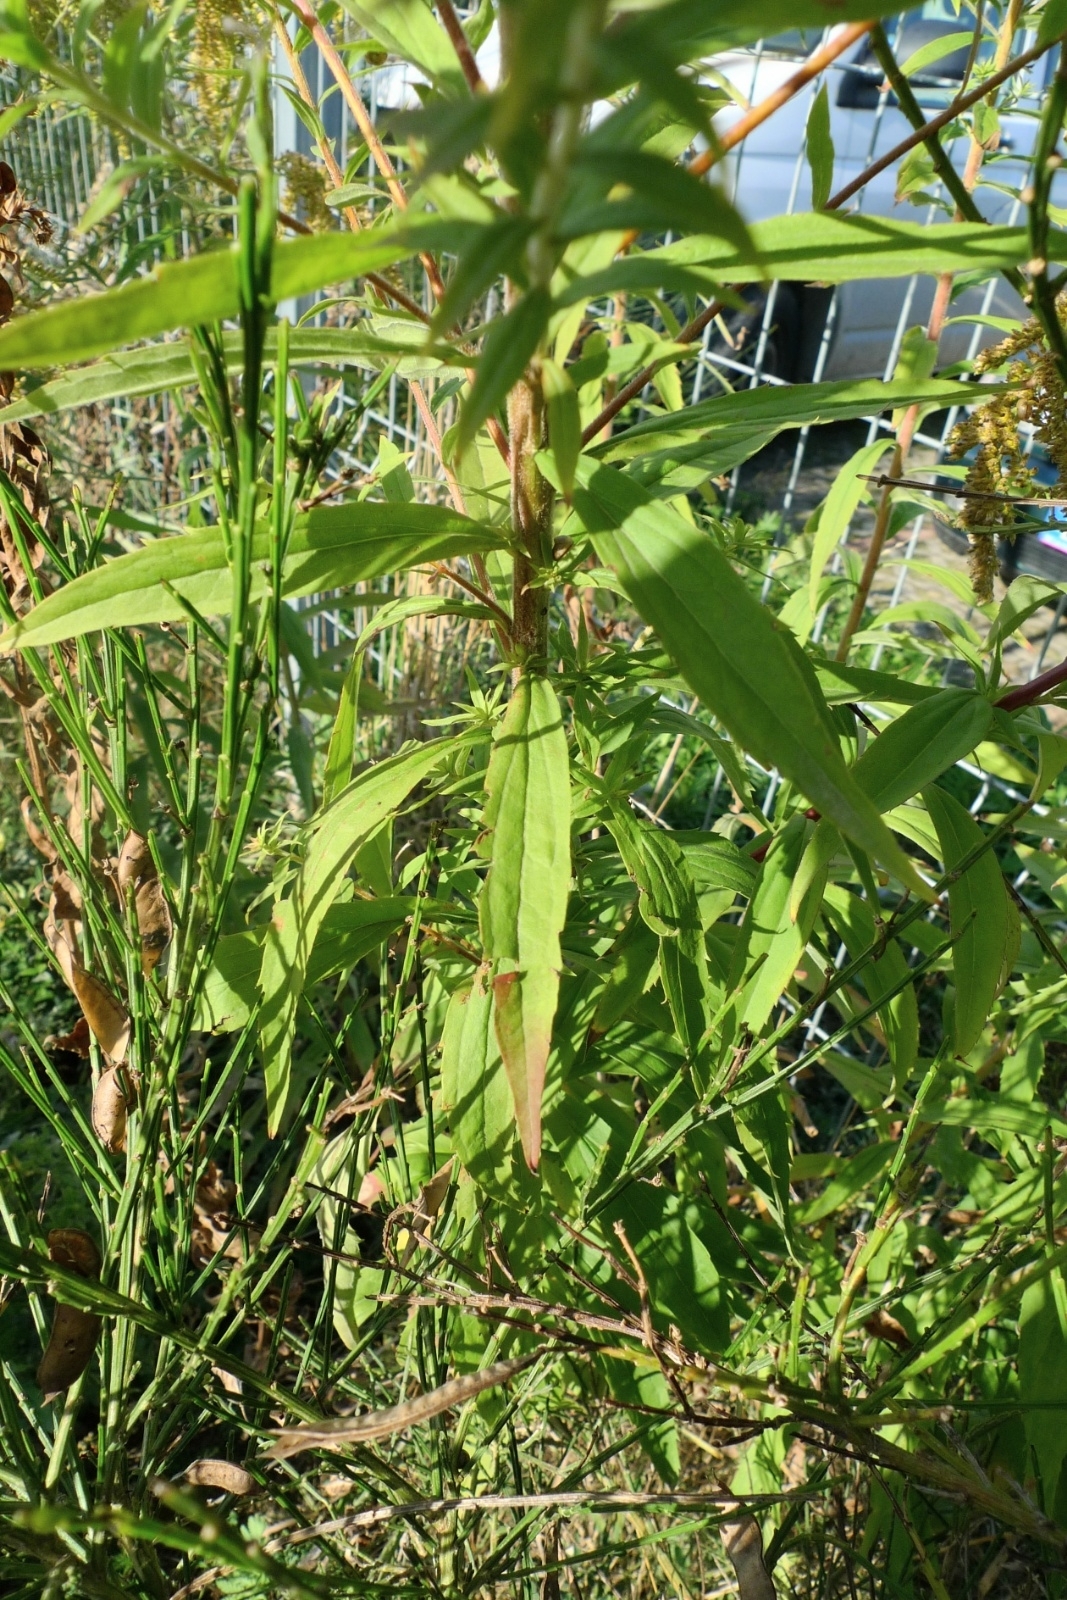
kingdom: Plantae
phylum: Tracheophyta
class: Magnoliopsida
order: Asterales
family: Asteraceae
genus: Solidago
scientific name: Solidago canadensis
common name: Canada goldenrod
